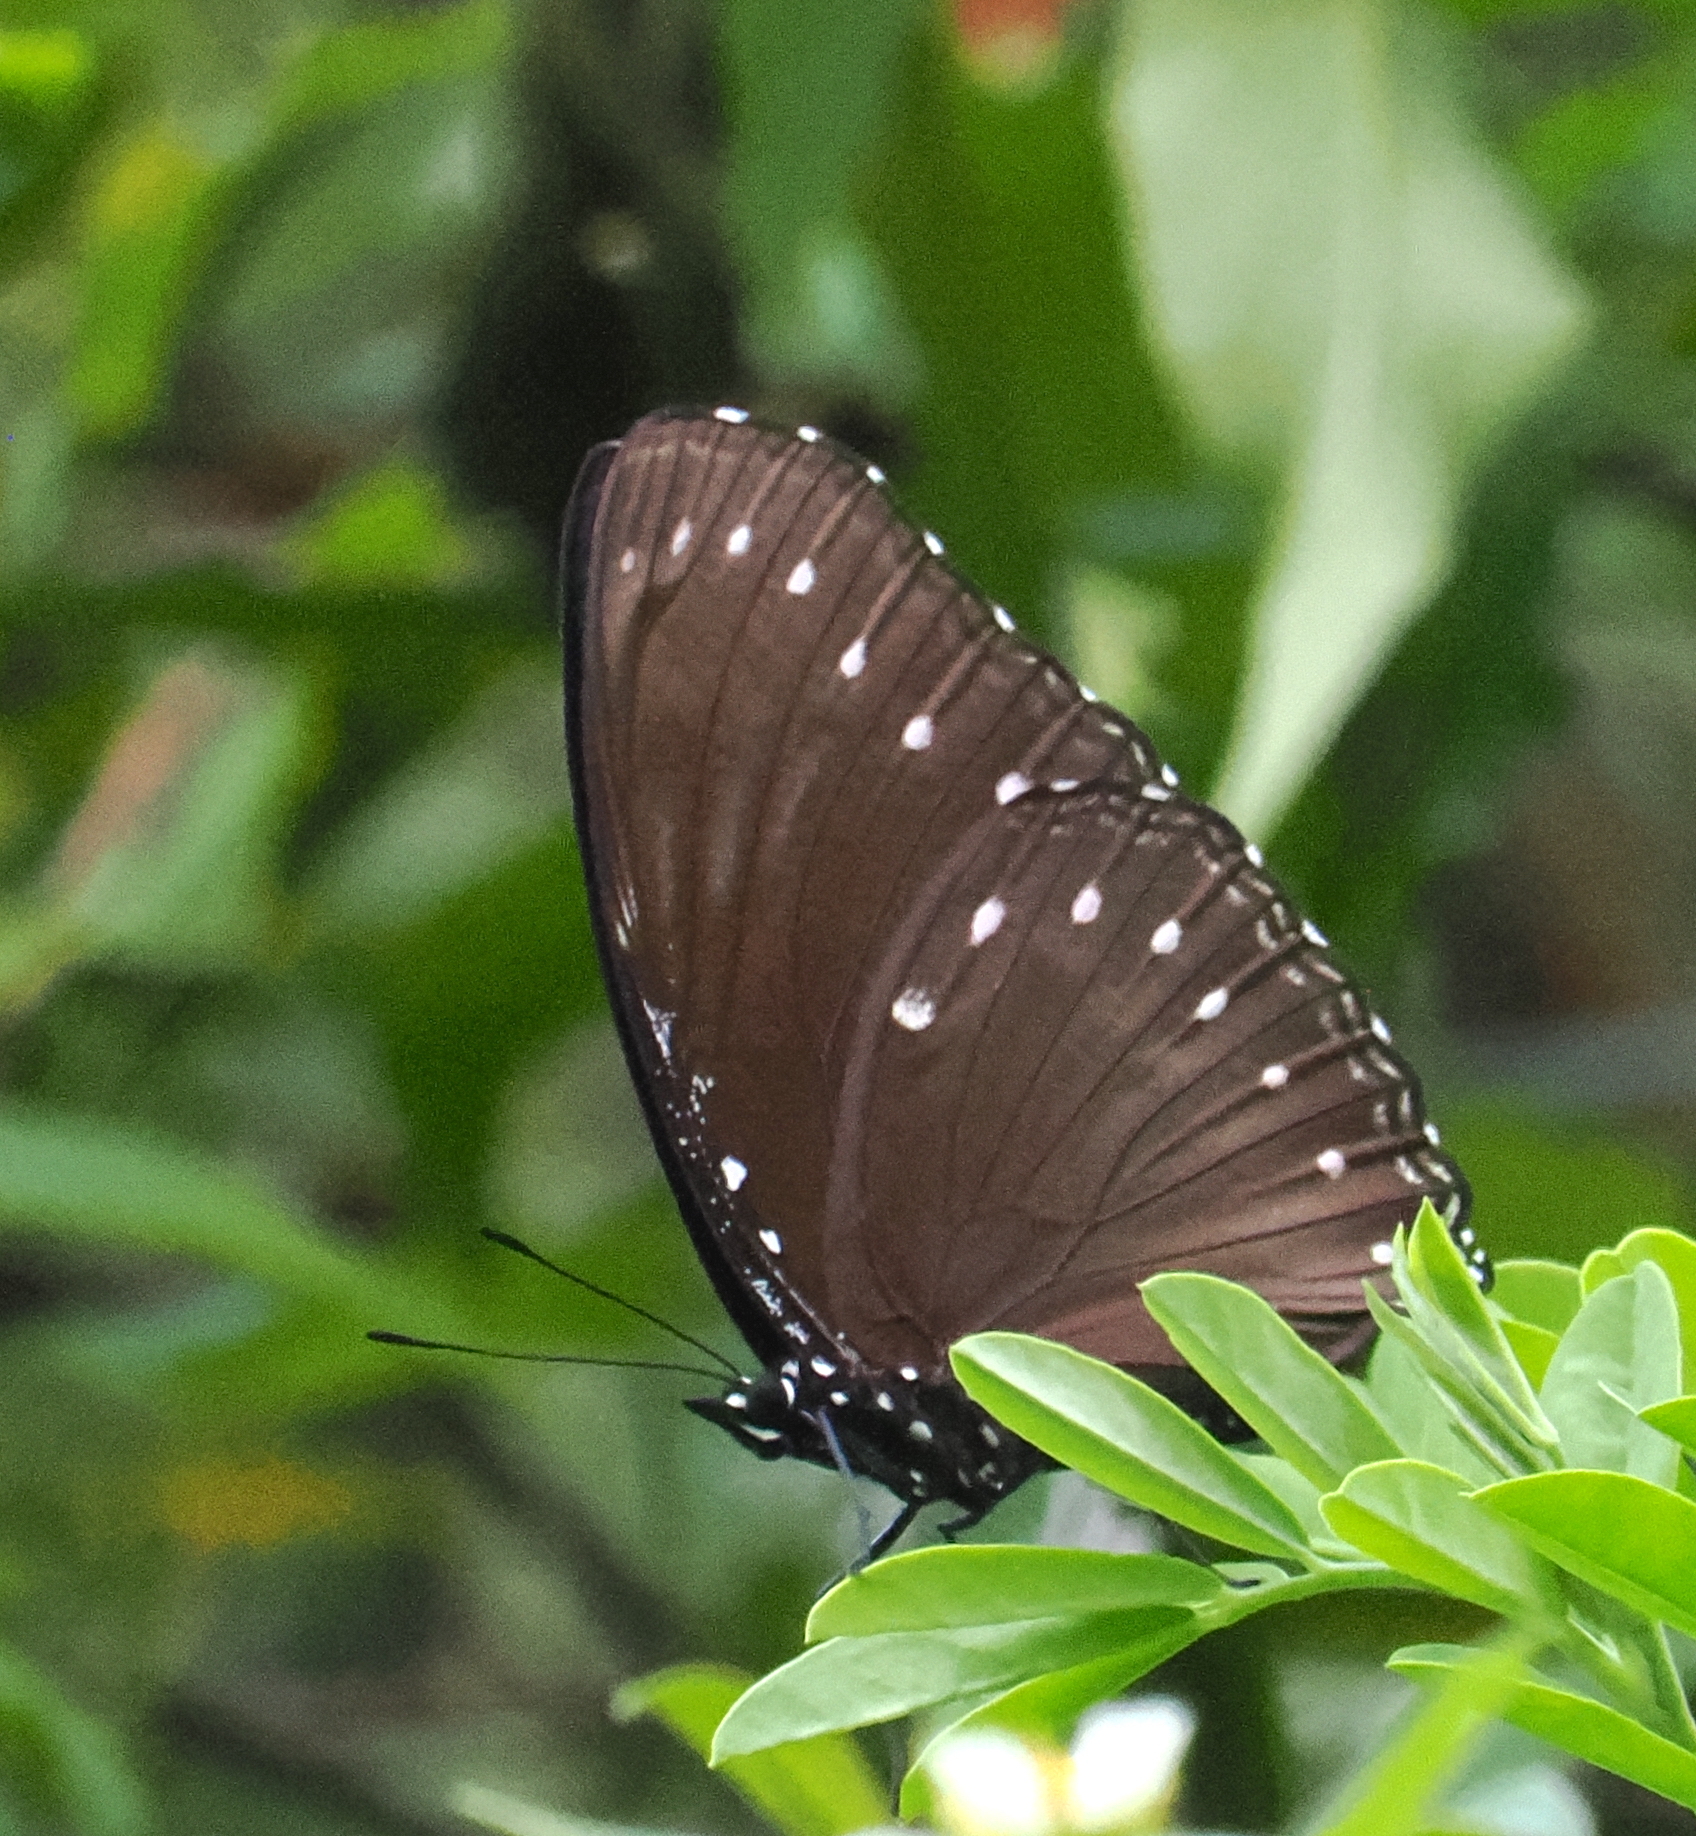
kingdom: Animalia
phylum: Arthropoda
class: Insecta
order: Lepidoptera
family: Nymphalidae
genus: Hypolimnas
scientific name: Hypolimnas anomala
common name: Malayan eggfly
